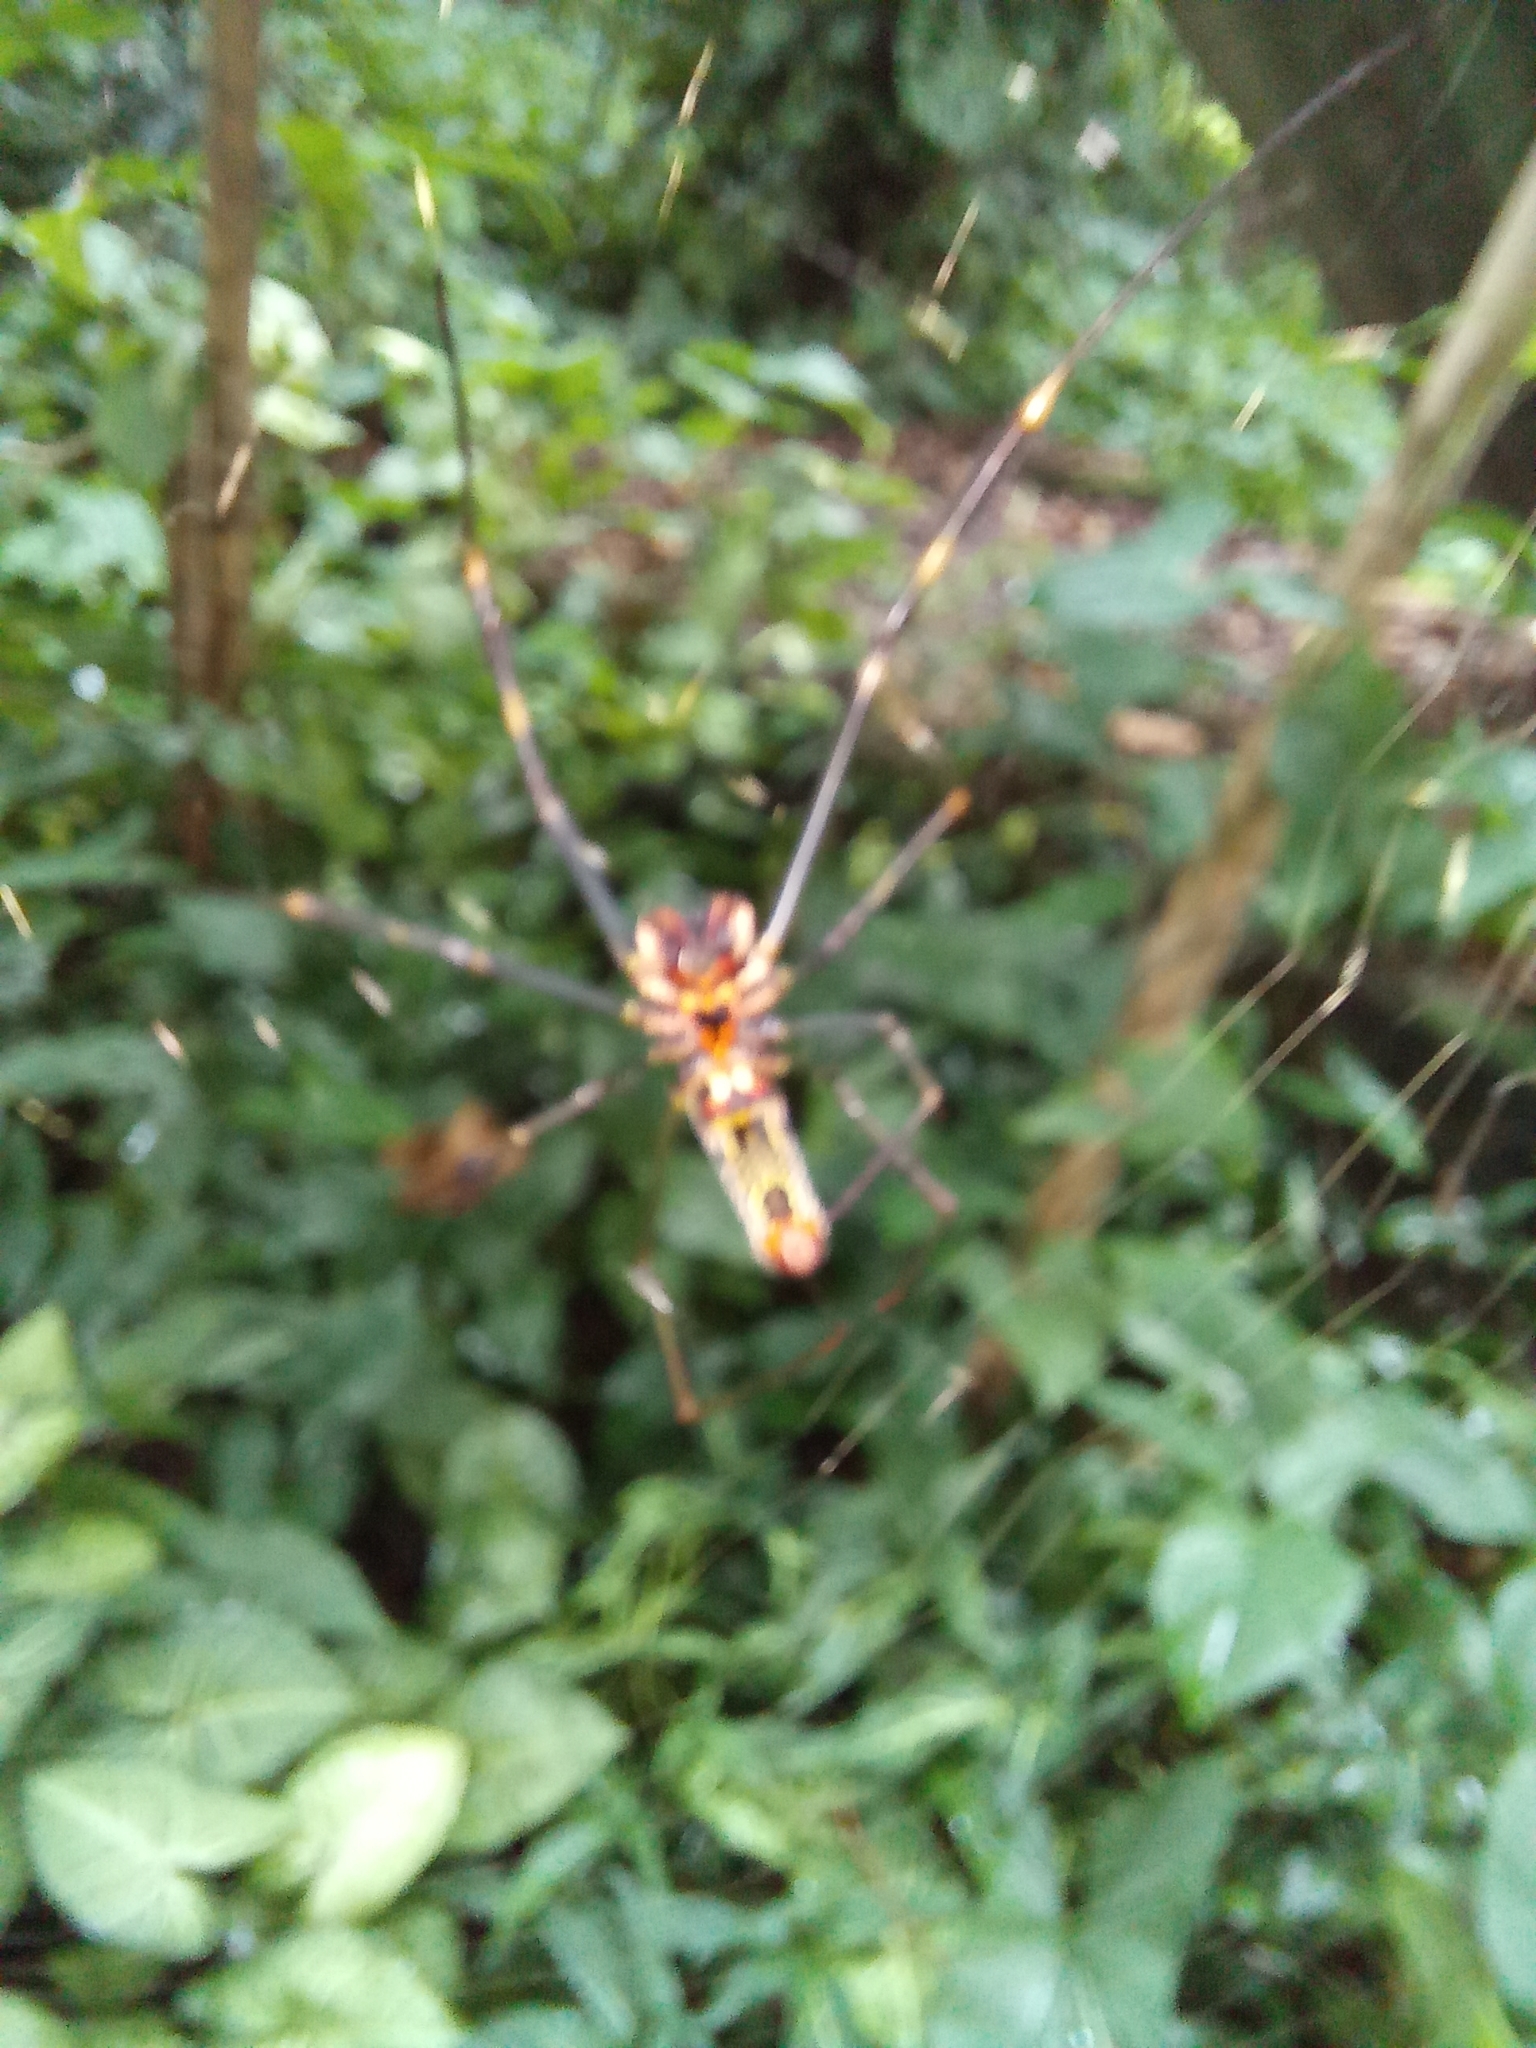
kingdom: Animalia
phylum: Arthropoda
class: Arachnida
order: Araneae
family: Araneidae
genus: Trichonephila
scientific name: Trichonephila clavipes
